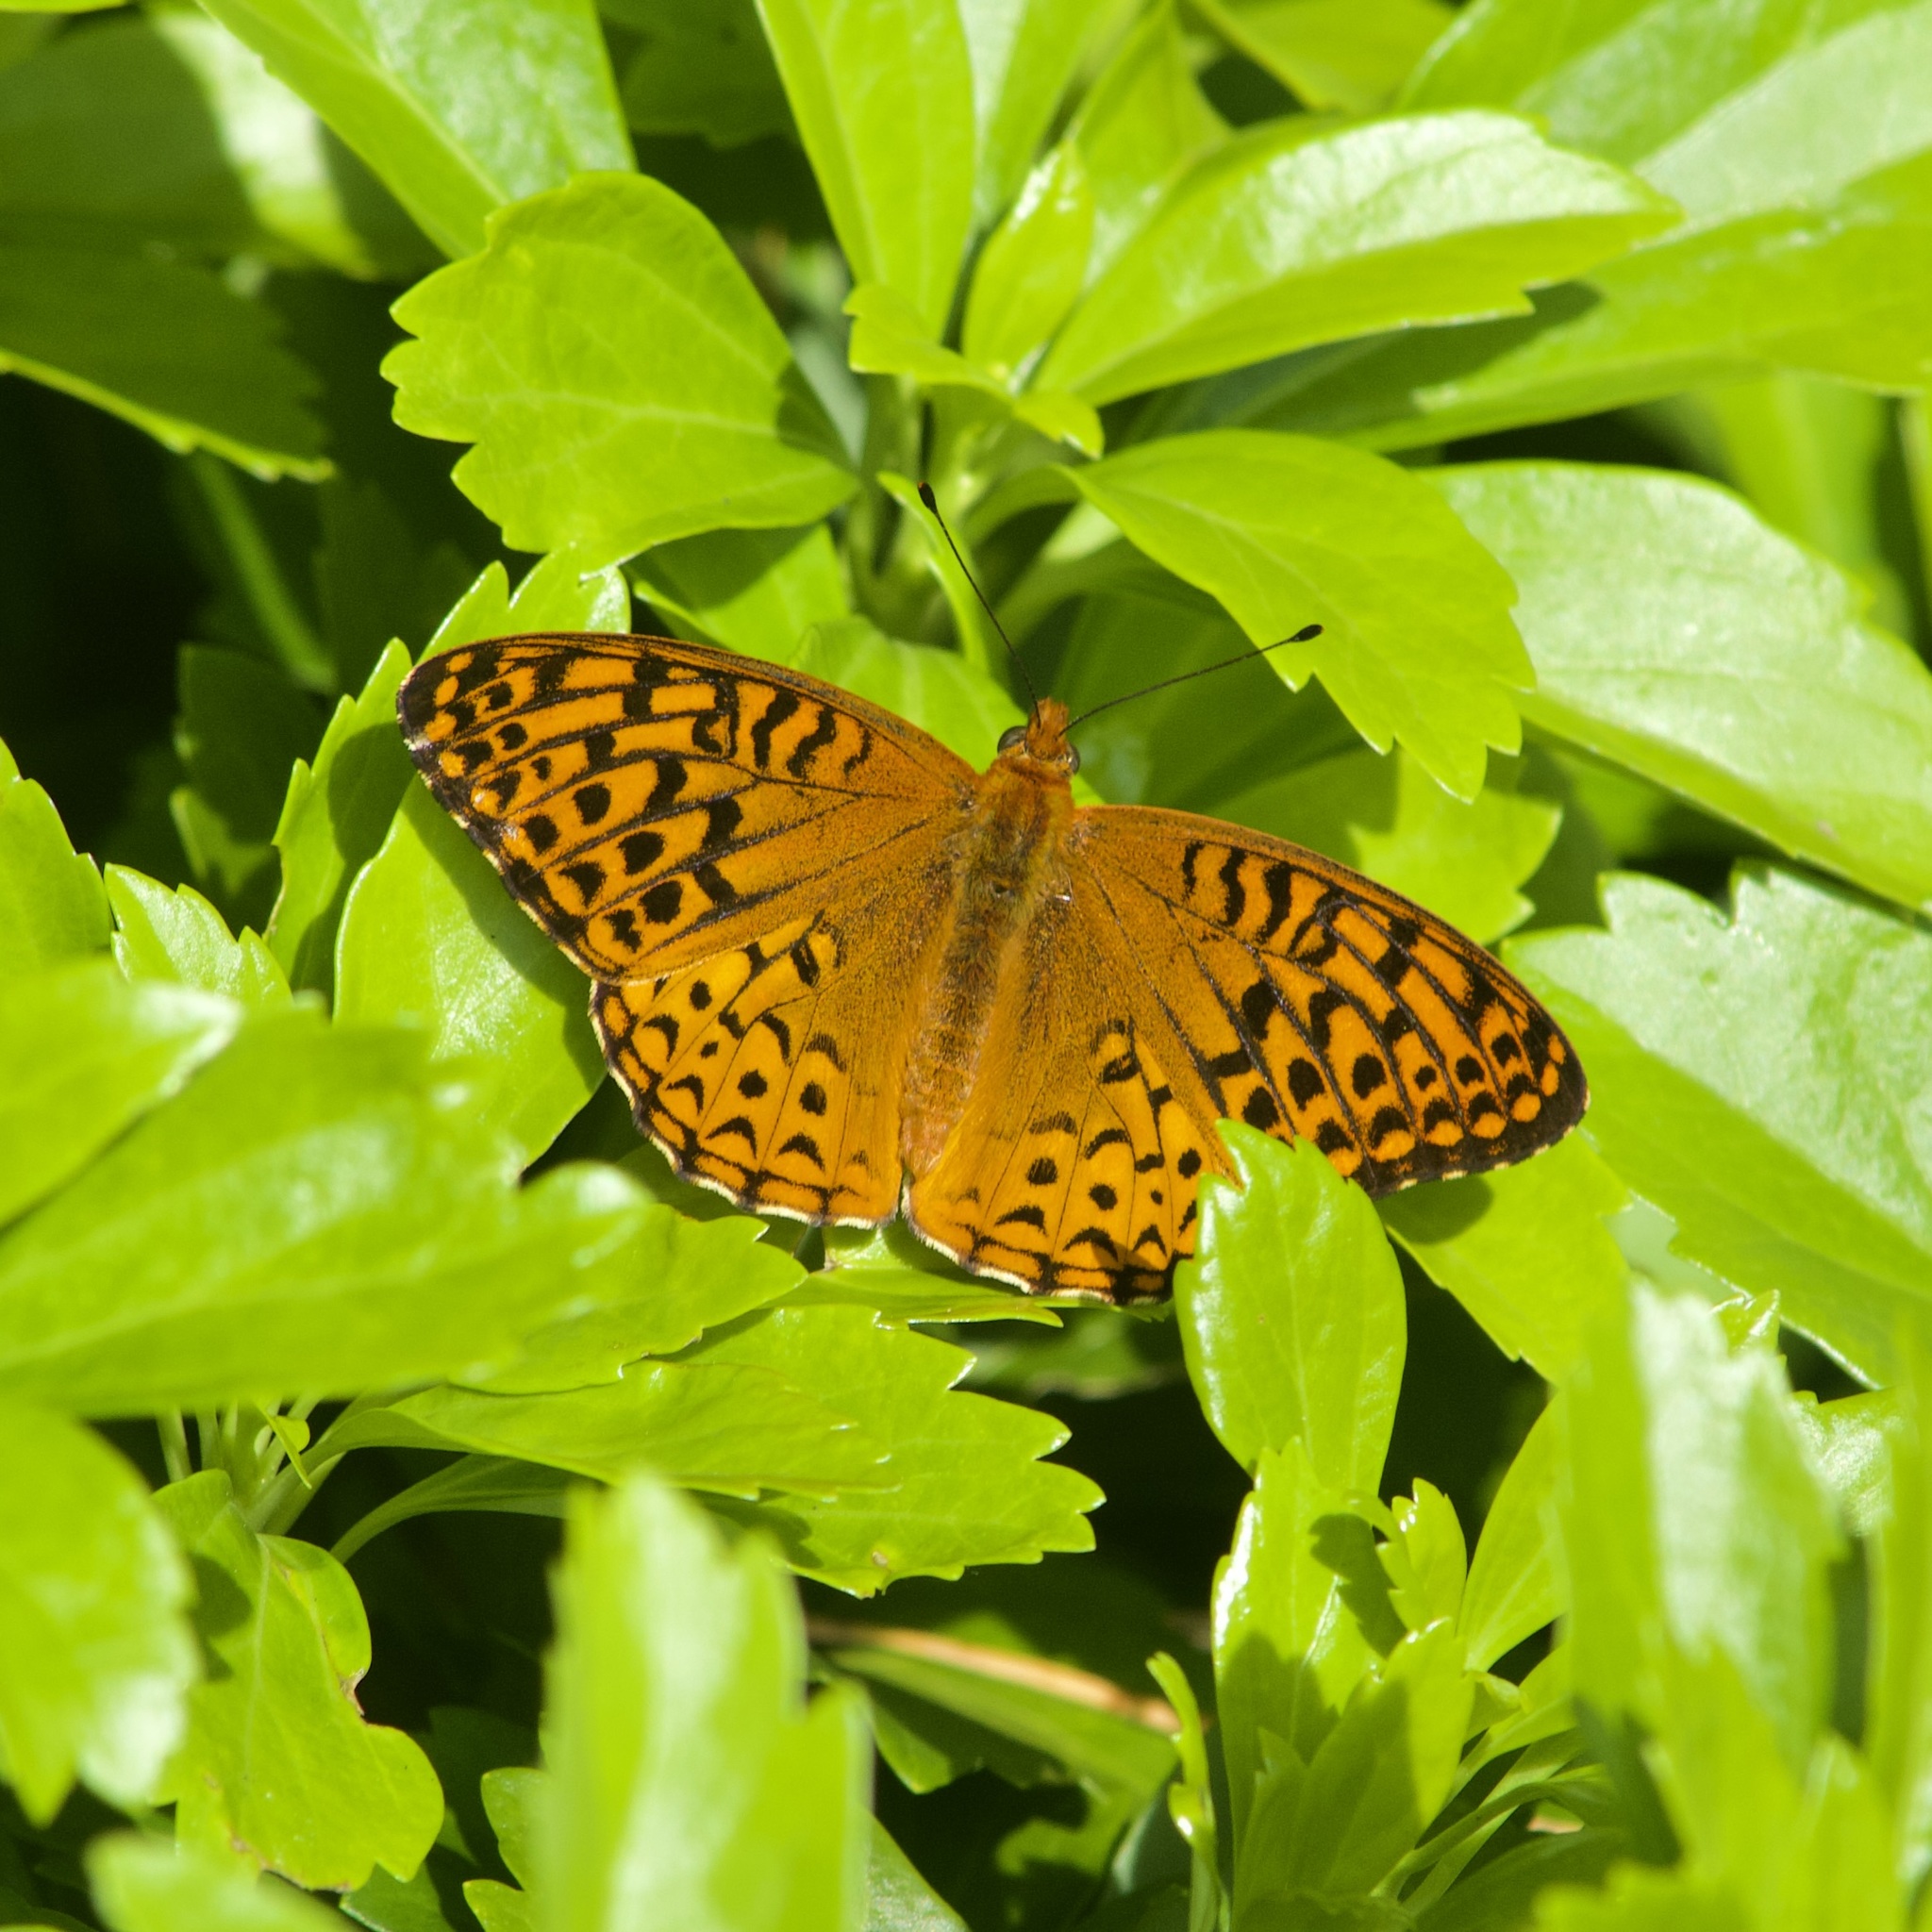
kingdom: Animalia
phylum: Arthropoda
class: Insecta
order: Lepidoptera
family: Nymphalidae
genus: Speyeria
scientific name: Speyeria atlantis
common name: Atlantis fritillary
